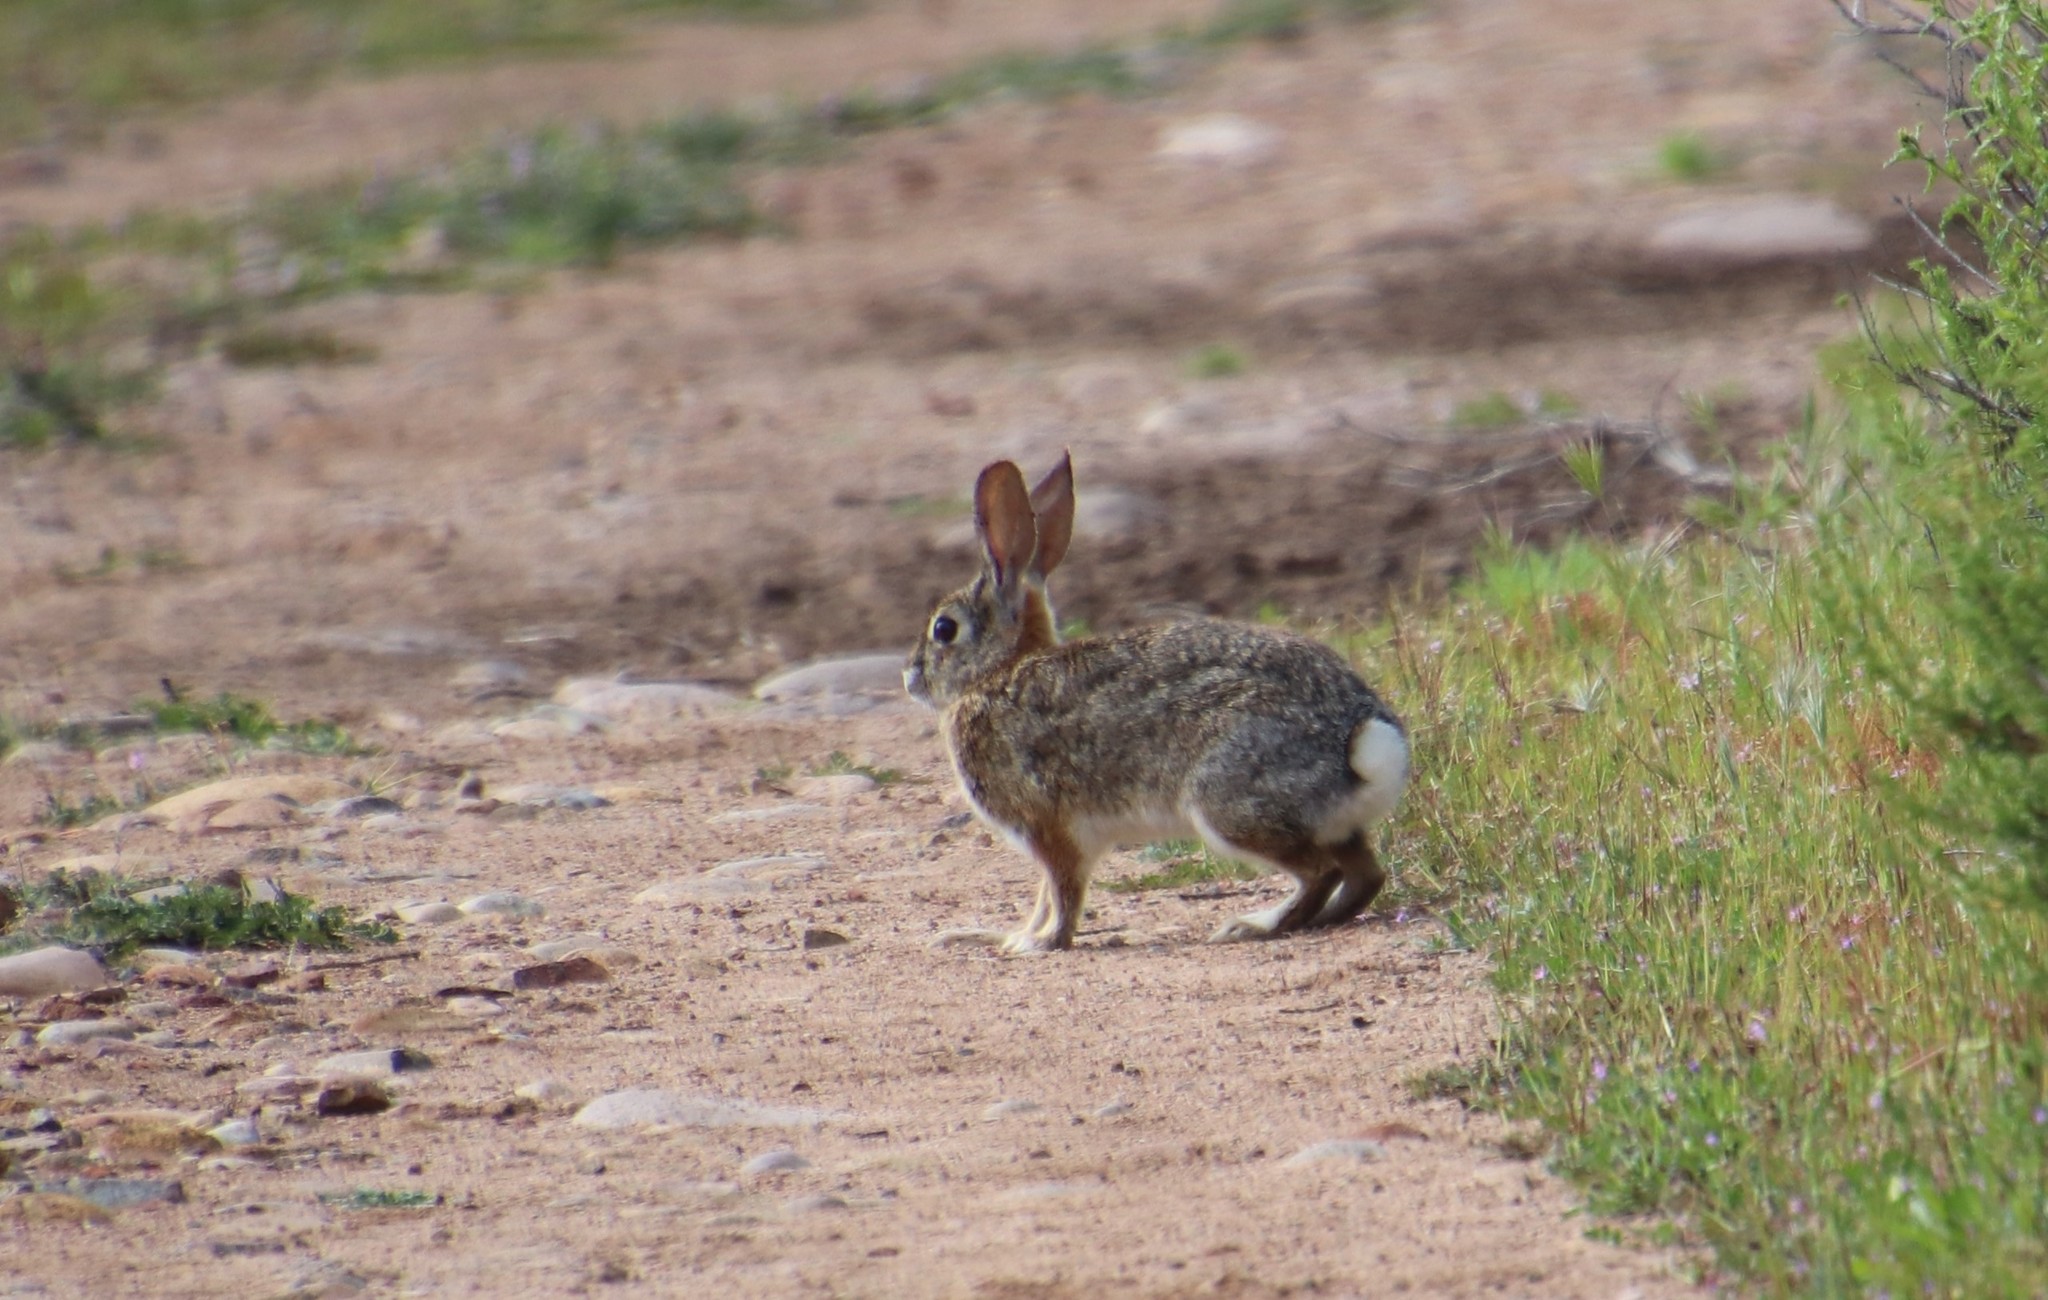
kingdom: Animalia
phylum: Chordata
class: Mammalia
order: Lagomorpha
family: Leporidae
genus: Sylvilagus
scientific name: Sylvilagus audubonii
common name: Desert cottontail
